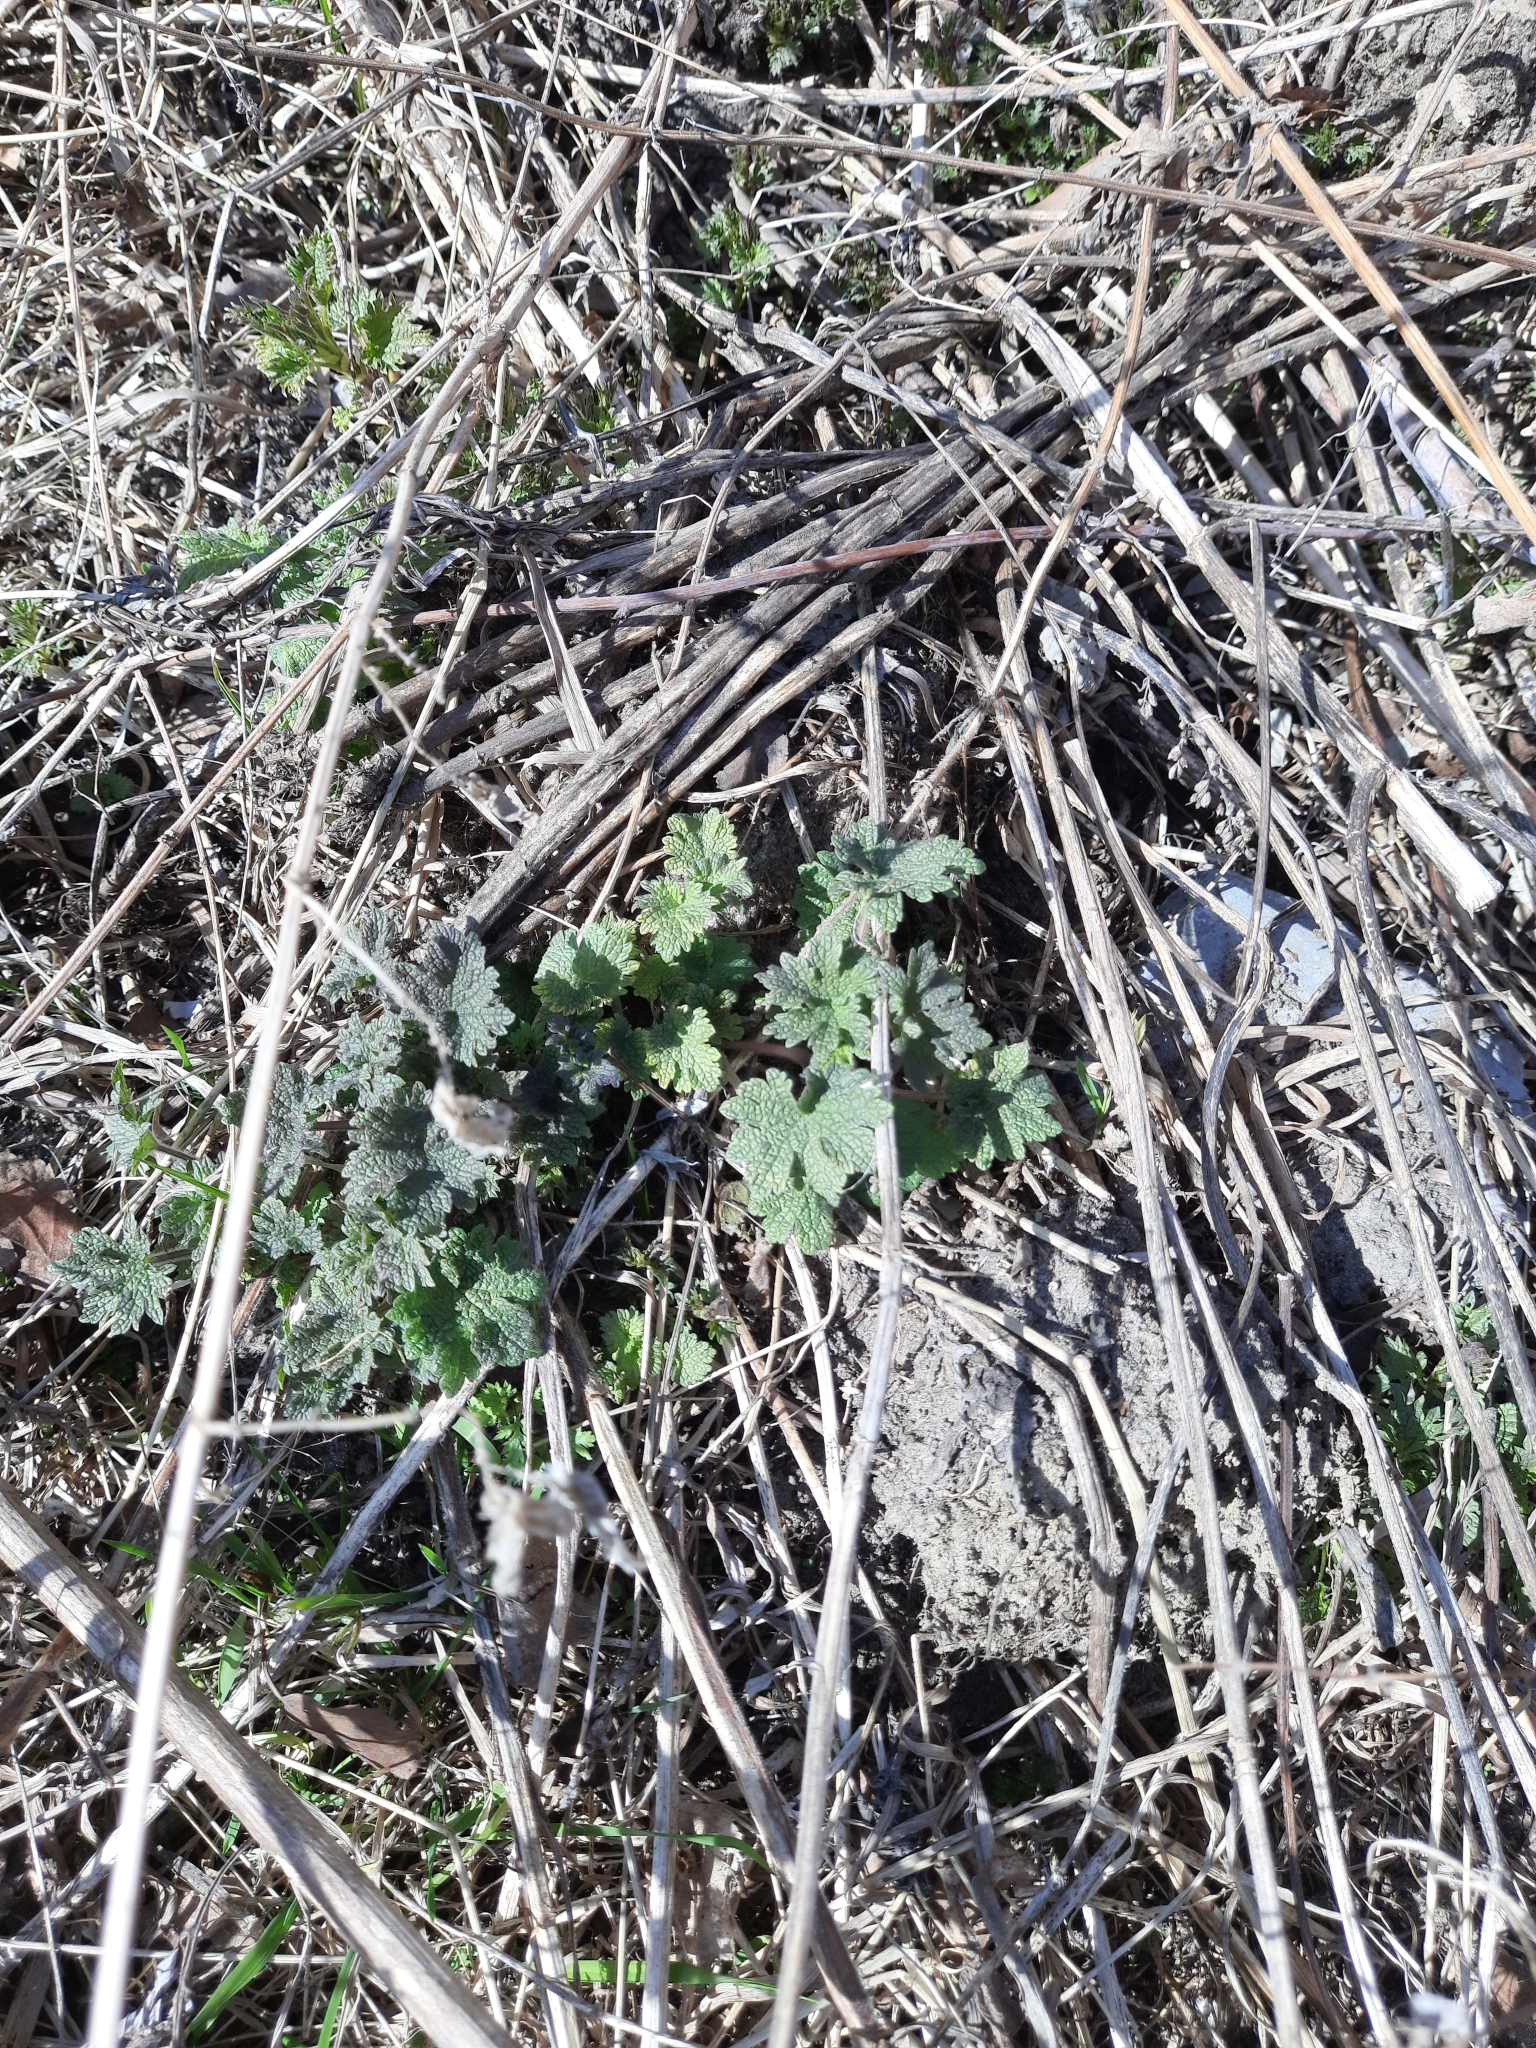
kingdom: Plantae
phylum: Tracheophyta
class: Magnoliopsida
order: Lamiales
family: Lamiaceae
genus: Leonurus
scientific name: Leonurus quinquelobatus
